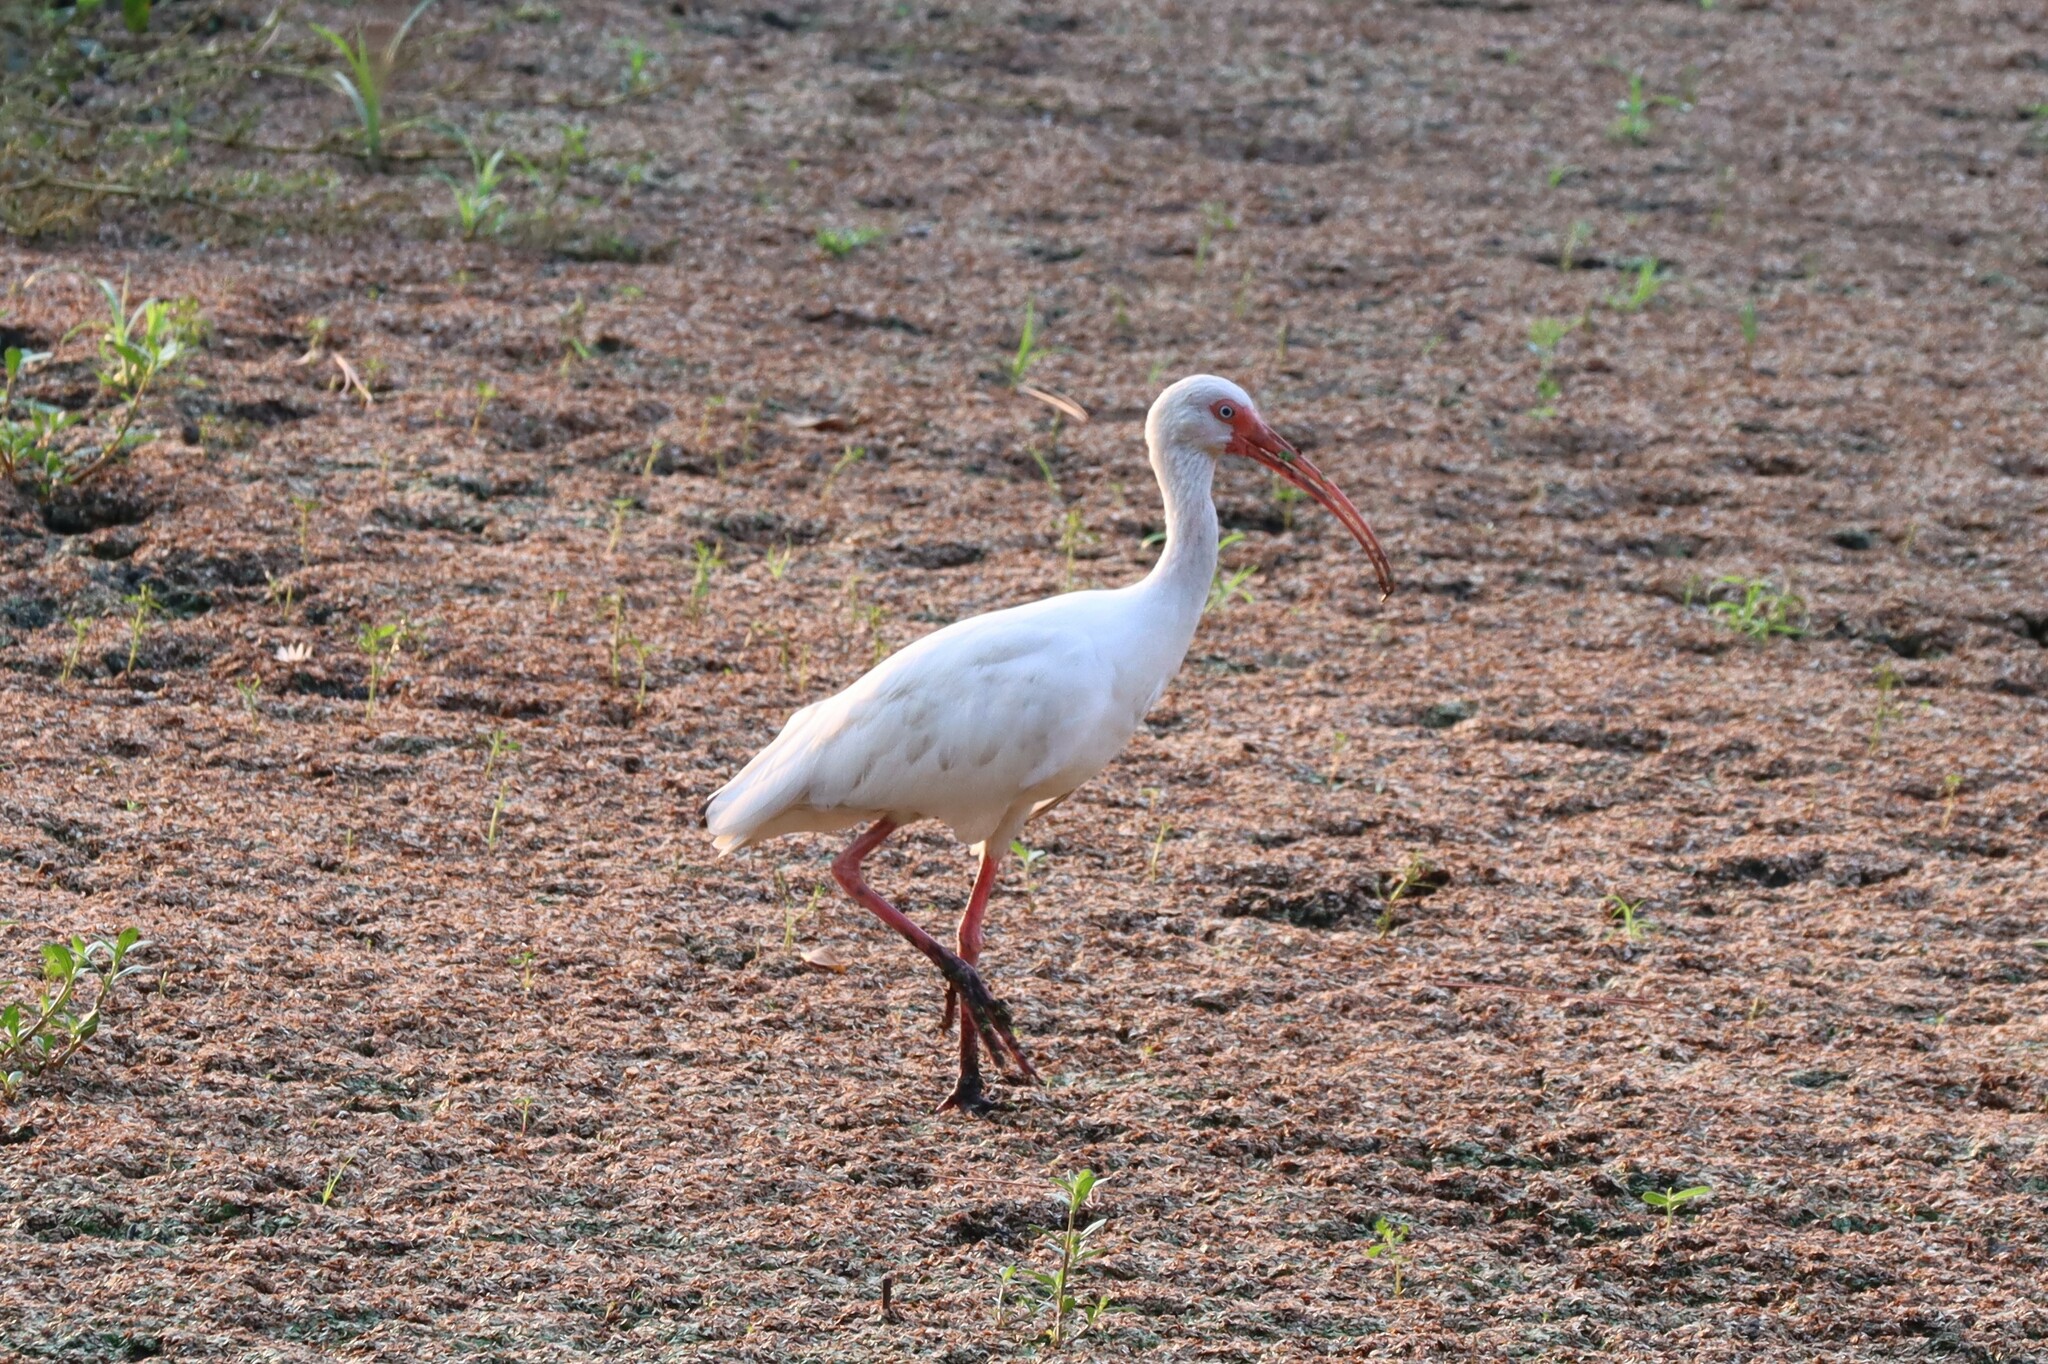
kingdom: Animalia
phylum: Chordata
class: Aves
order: Pelecaniformes
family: Threskiornithidae
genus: Eudocimus
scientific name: Eudocimus albus
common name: White ibis
